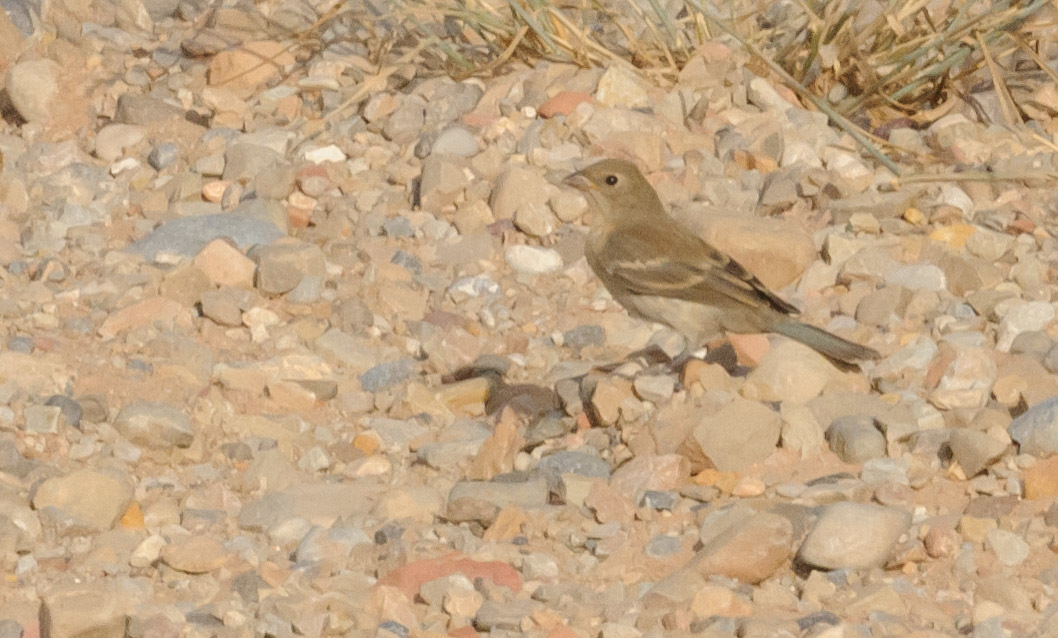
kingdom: Animalia
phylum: Chordata
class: Aves
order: Passeriformes
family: Cardinalidae
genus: Passerina
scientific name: Passerina amoena
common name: Lazuli bunting
